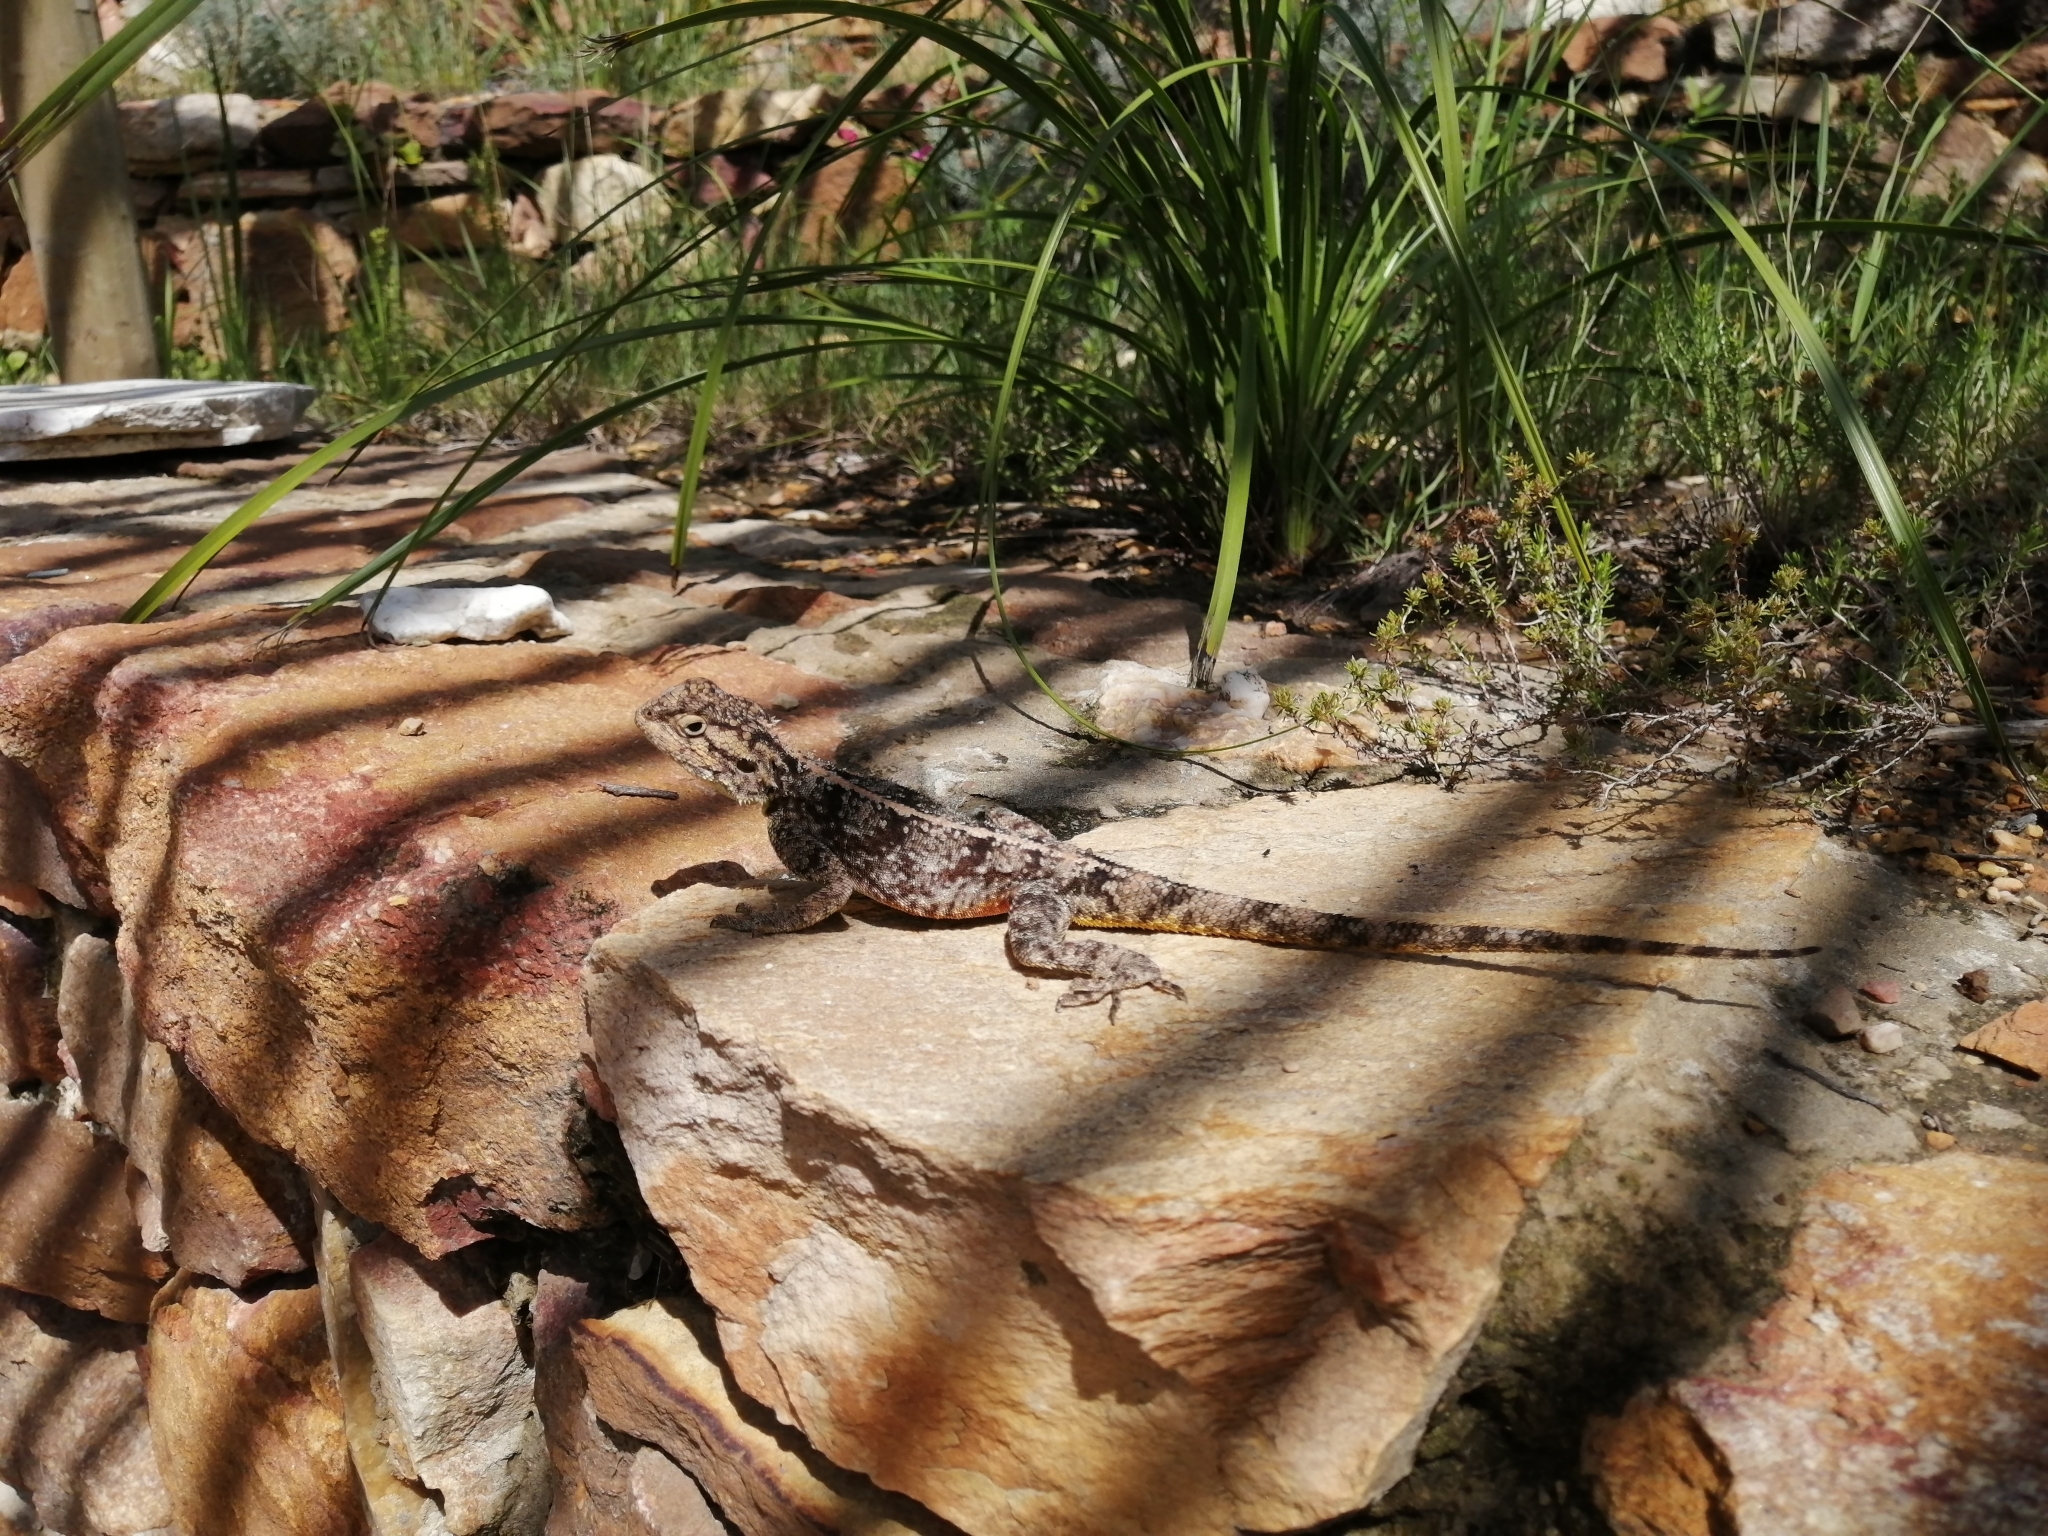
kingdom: Animalia
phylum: Chordata
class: Squamata
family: Agamidae
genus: Agama
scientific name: Agama atra
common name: Southern african rock agama
